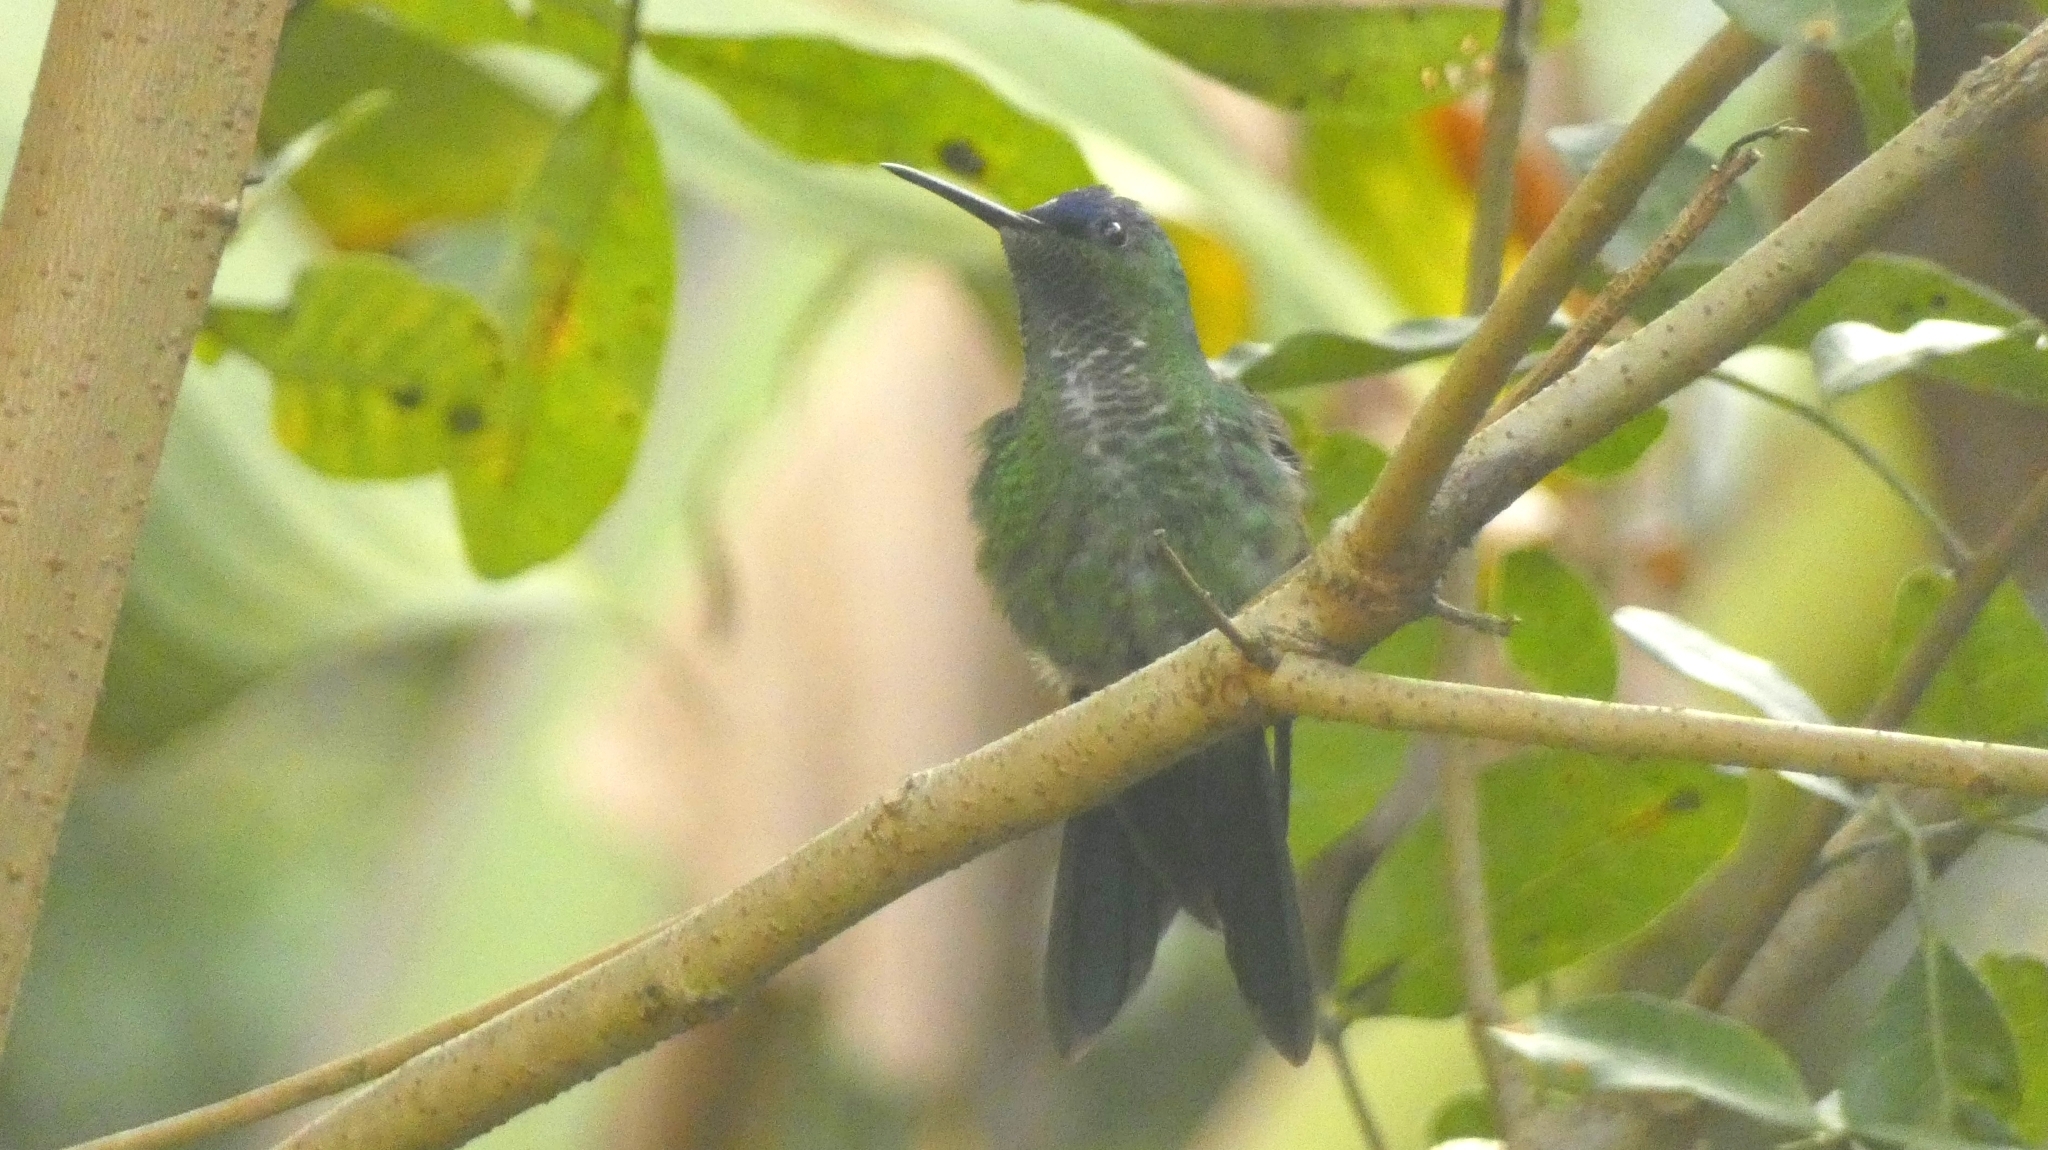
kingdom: Animalia
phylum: Chordata
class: Aves
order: Apodiformes
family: Trochilidae
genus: Thalurania
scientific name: Thalurania glaucopis
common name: Violet-capped woodnymph
